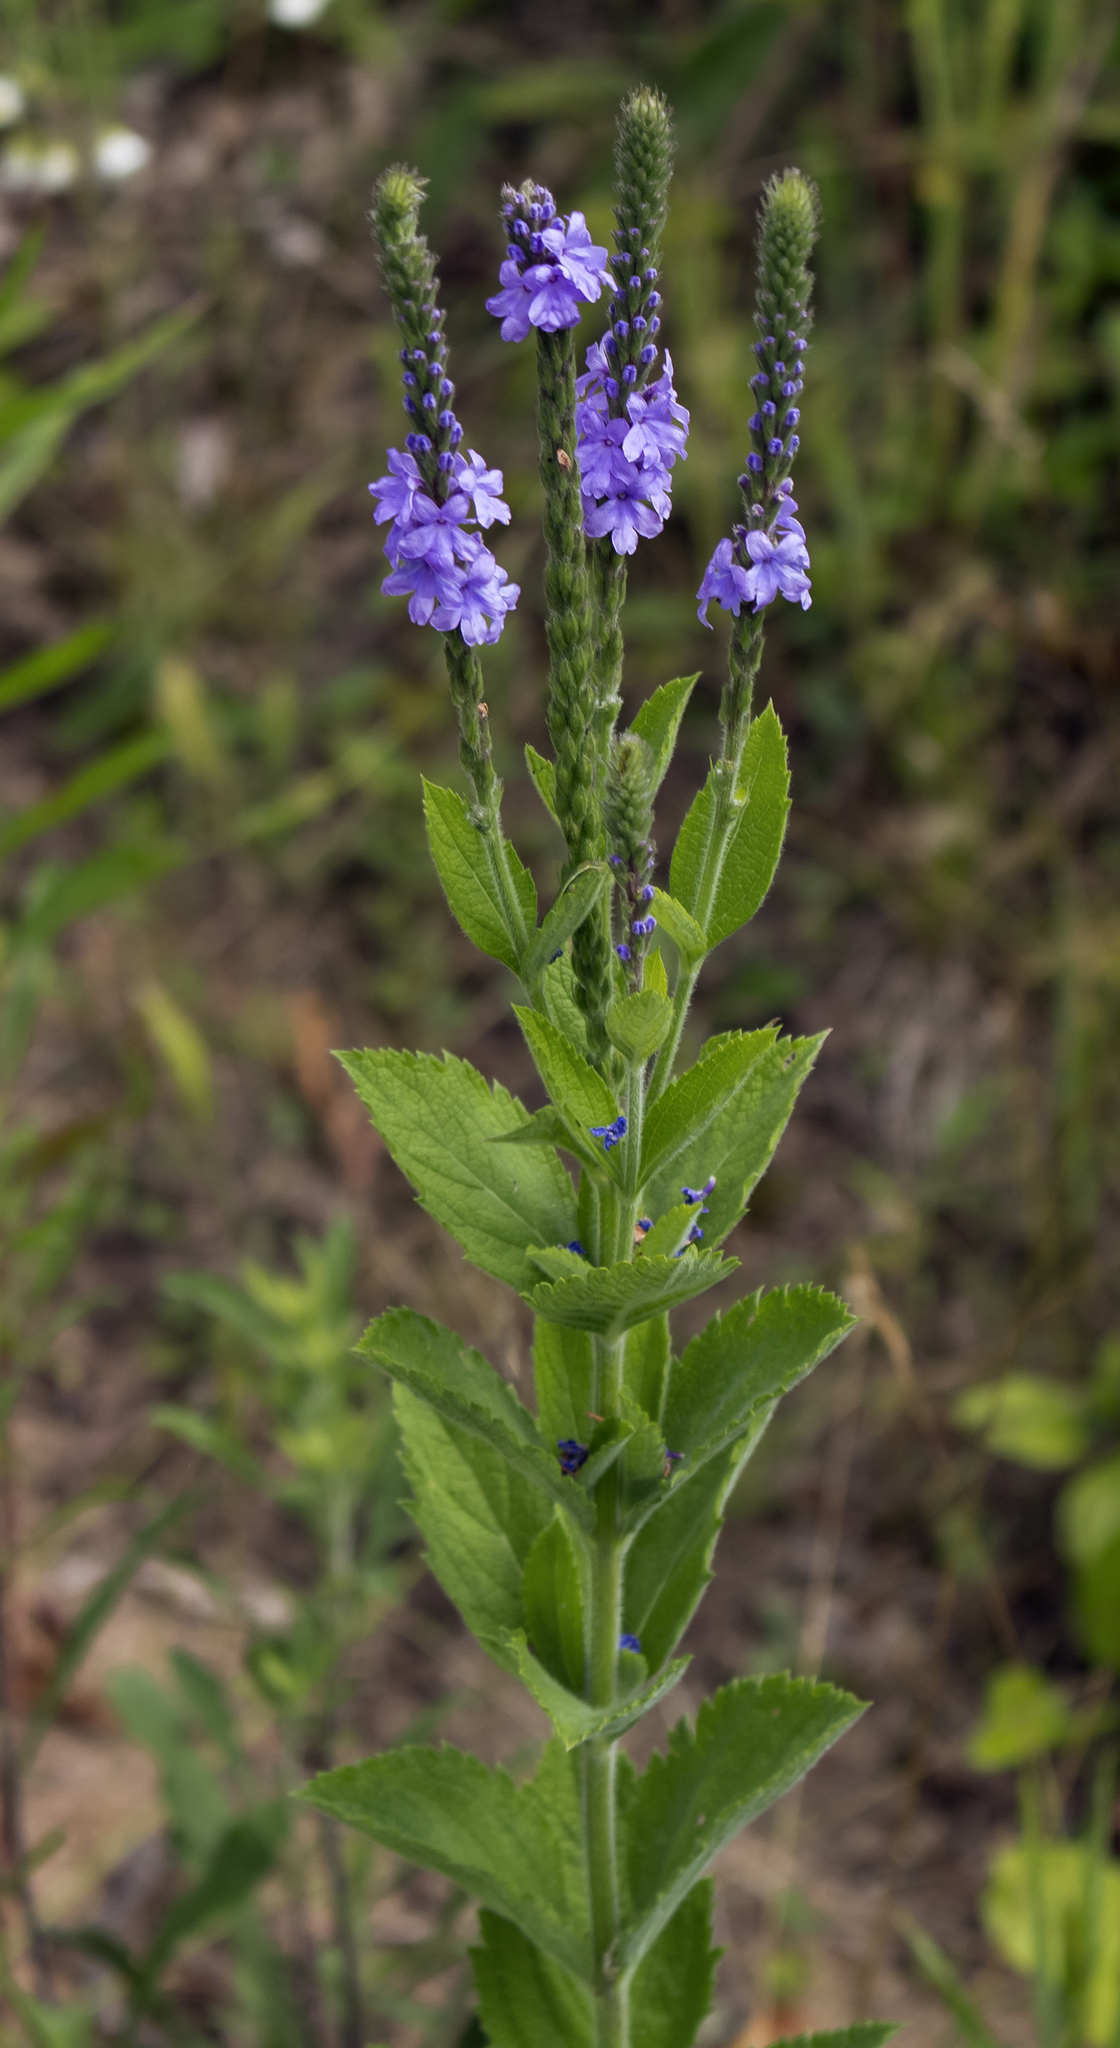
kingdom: Plantae
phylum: Tracheophyta
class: Magnoliopsida
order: Lamiales
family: Verbenaceae
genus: Verbena
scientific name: Verbena stricta
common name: Hoary vervain
